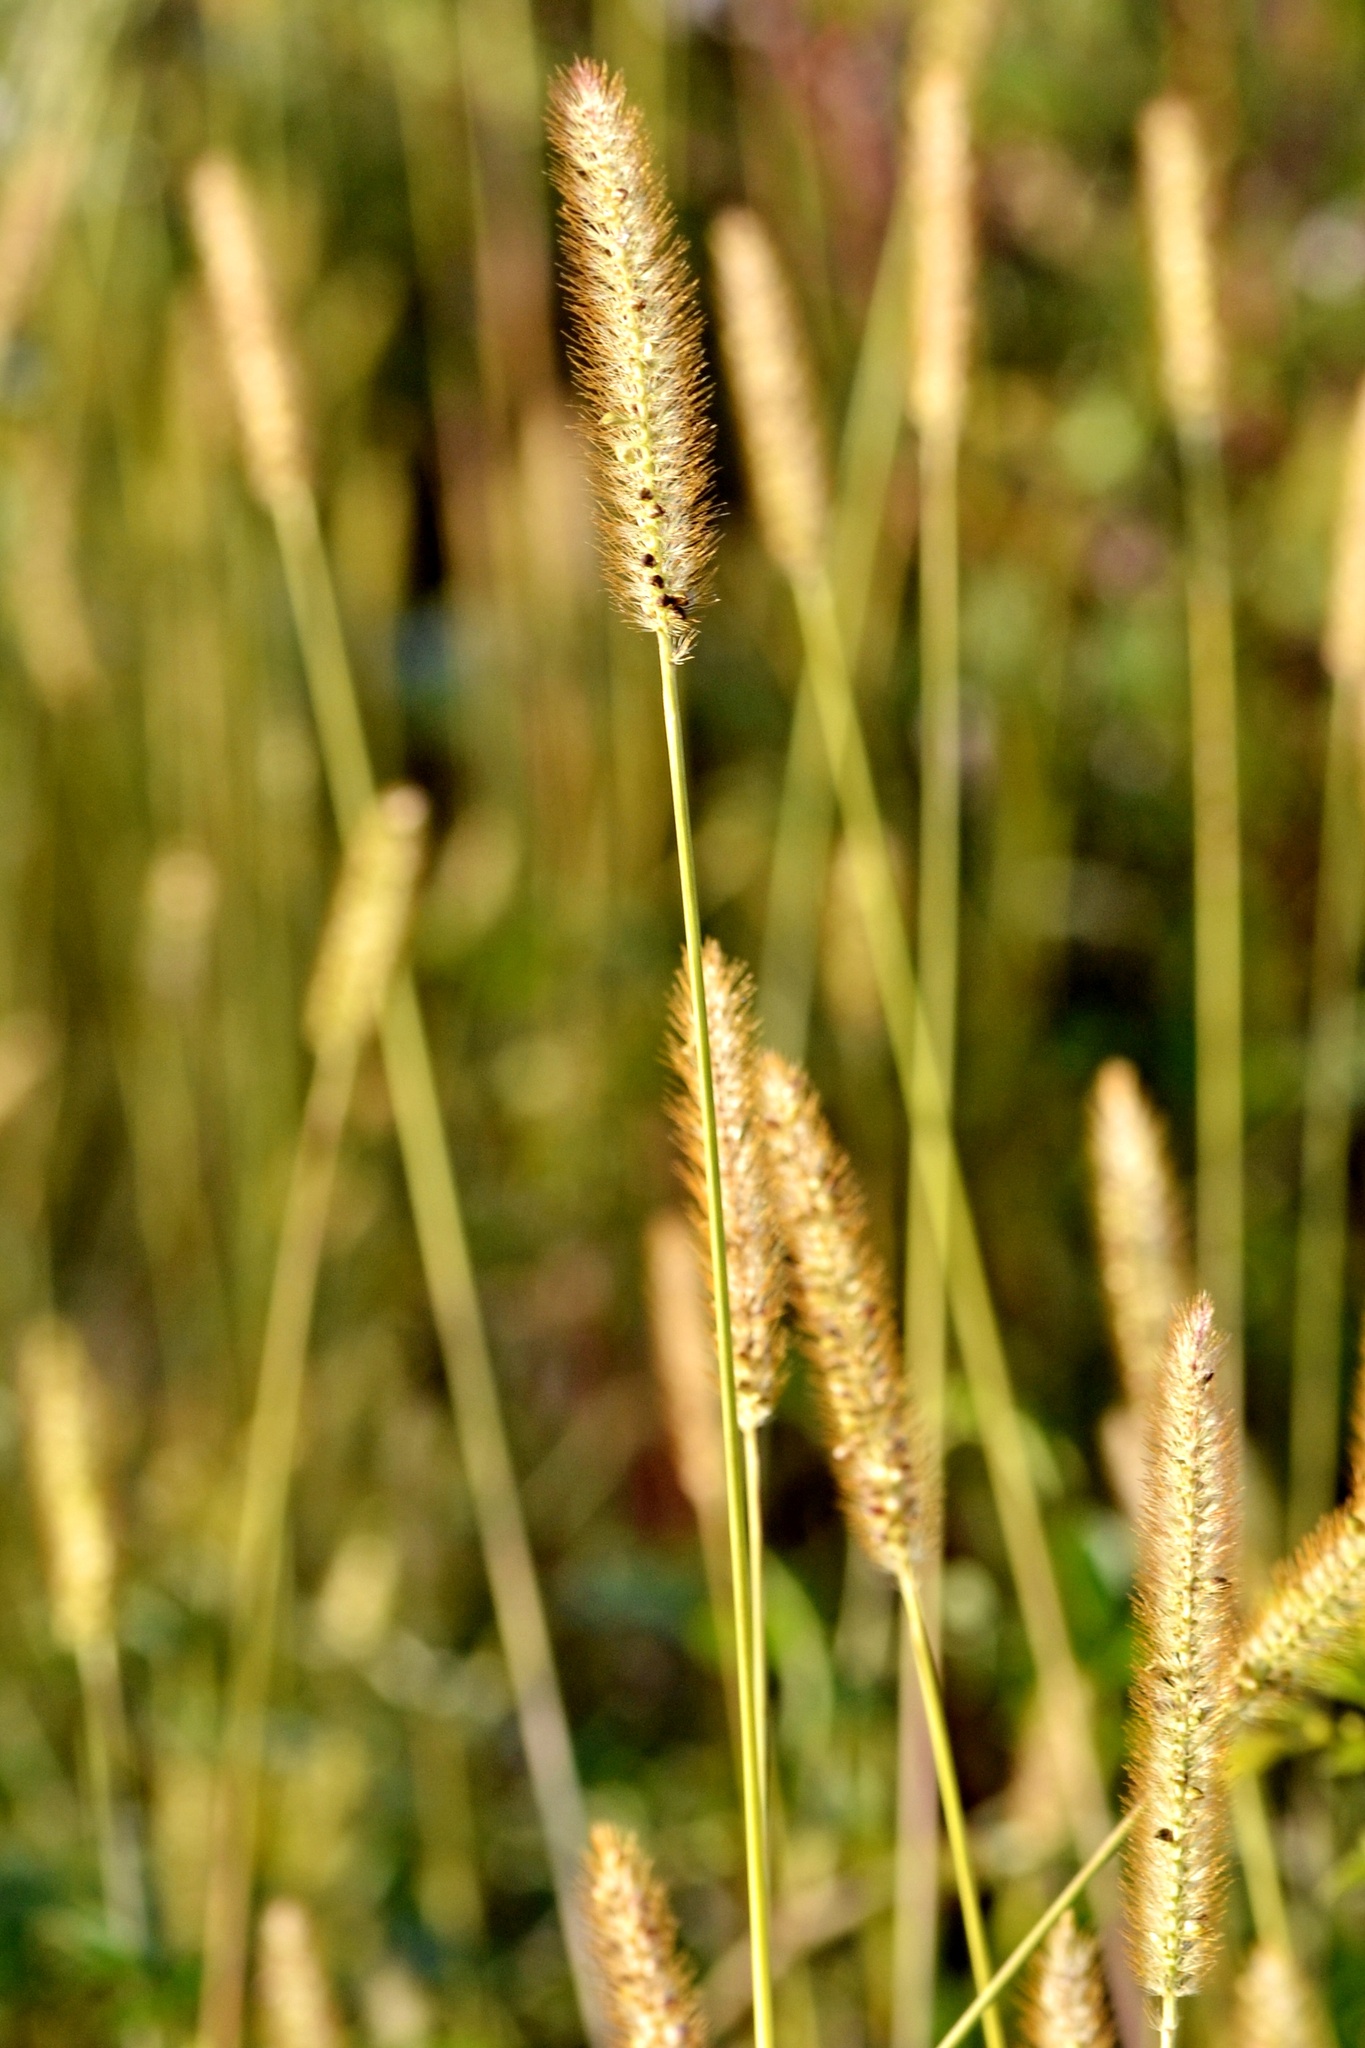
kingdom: Plantae
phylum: Tracheophyta
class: Liliopsida
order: Poales
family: Poaceae
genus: Setaria
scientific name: Setaria pumila
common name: Yellow bristle-grass
